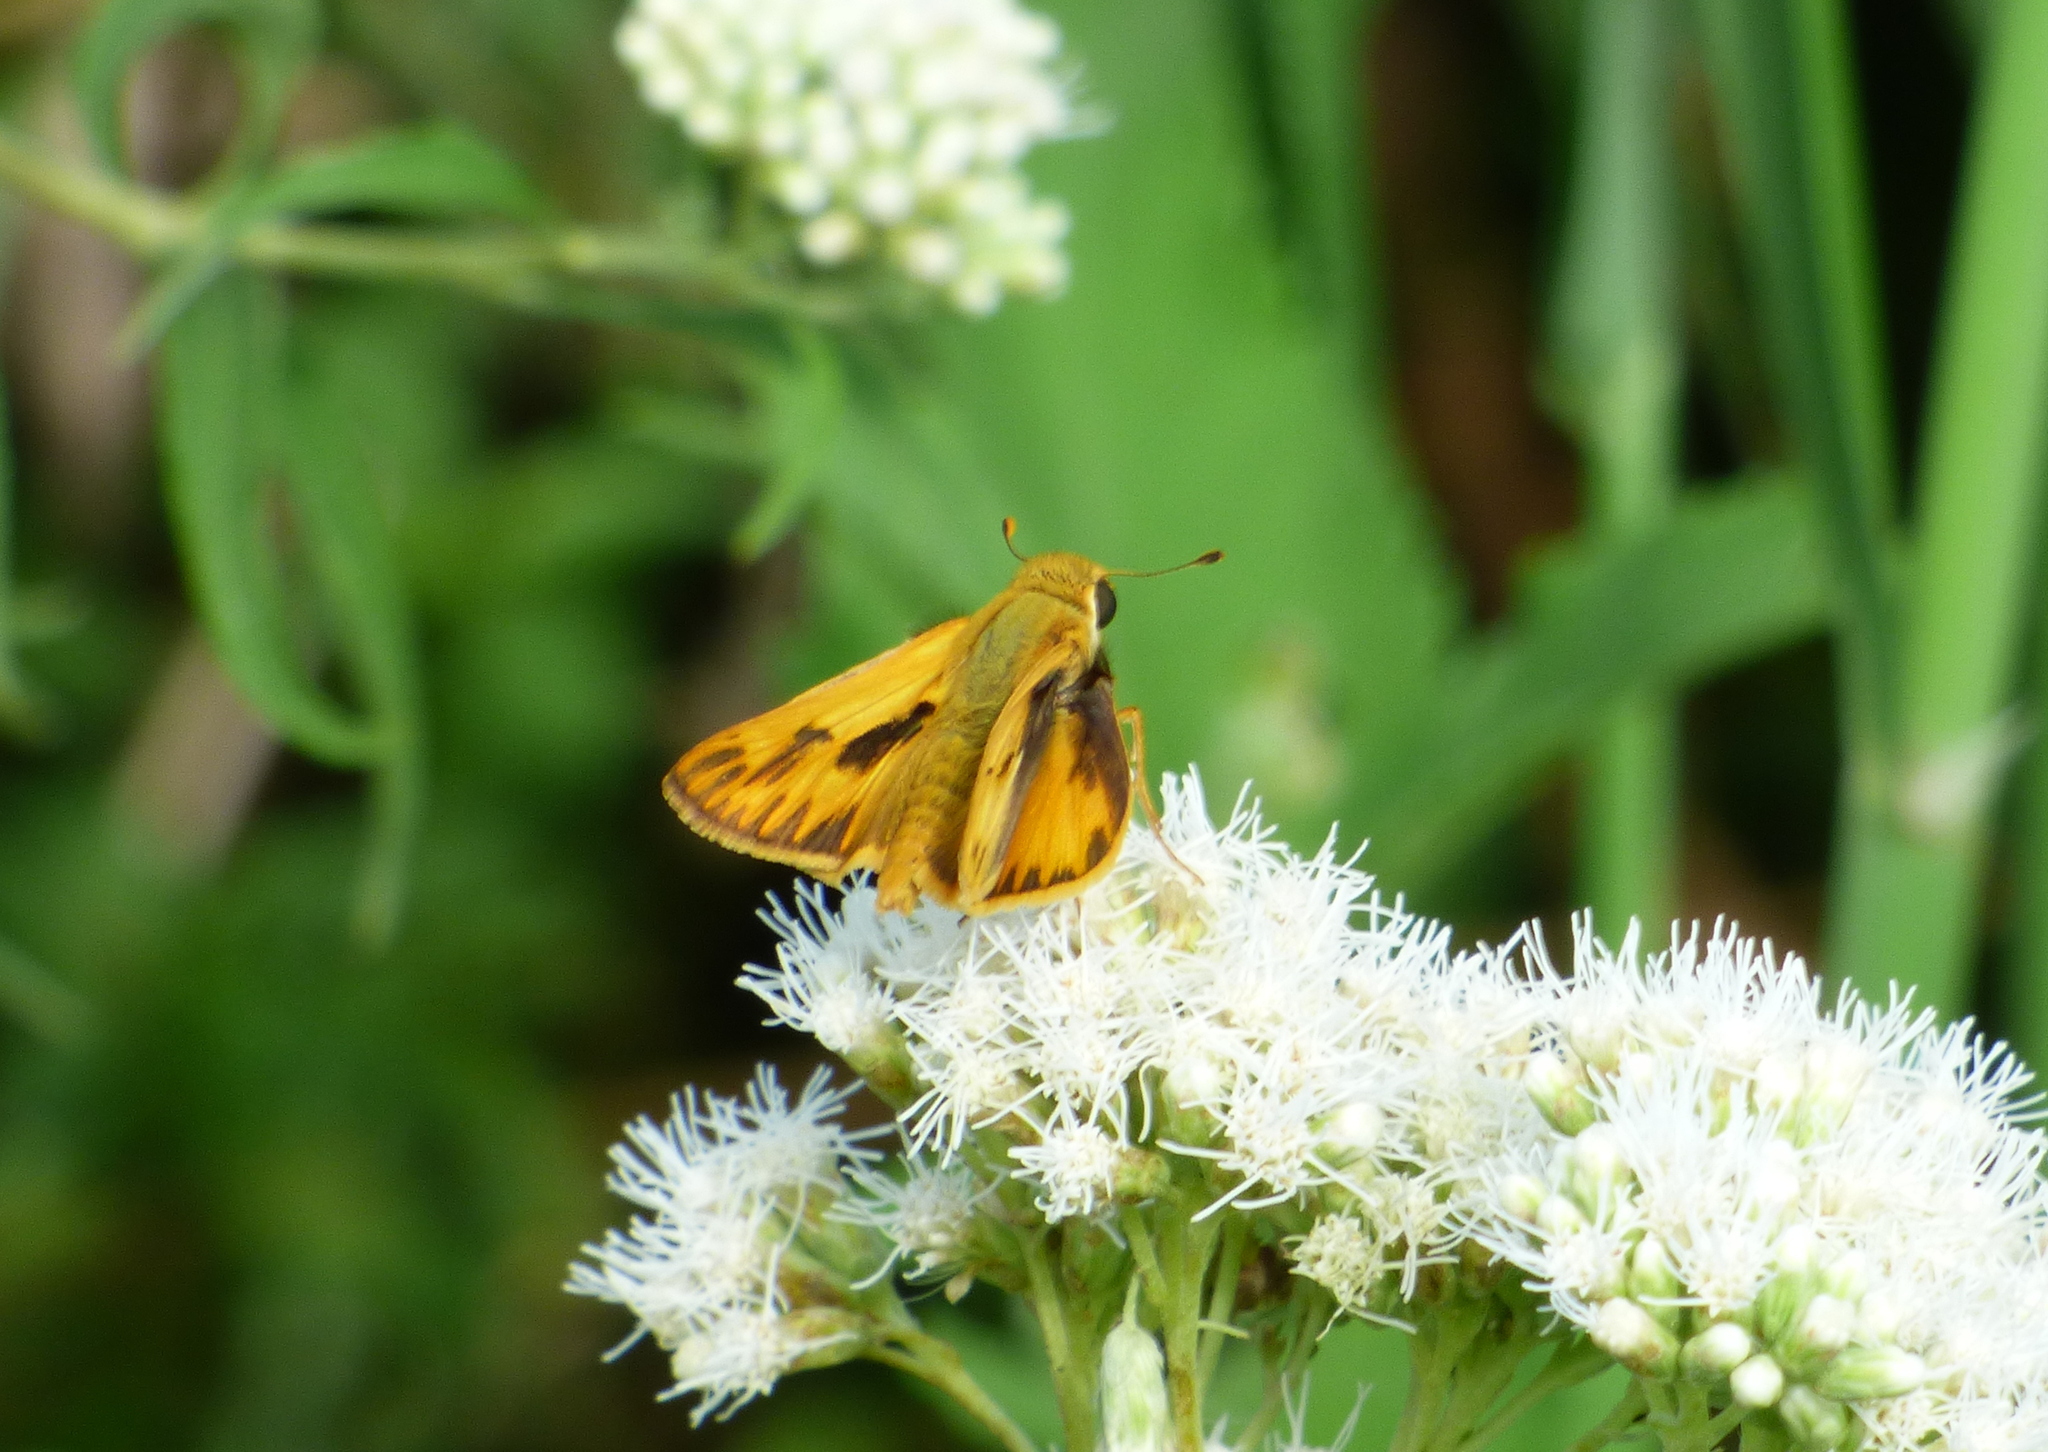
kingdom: Animalia
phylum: Arthropoda
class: Insecta
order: Lepidoptera
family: Hesperiidae
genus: Hylephila
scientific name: Hylephila phyleus
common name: Fiery skipper
